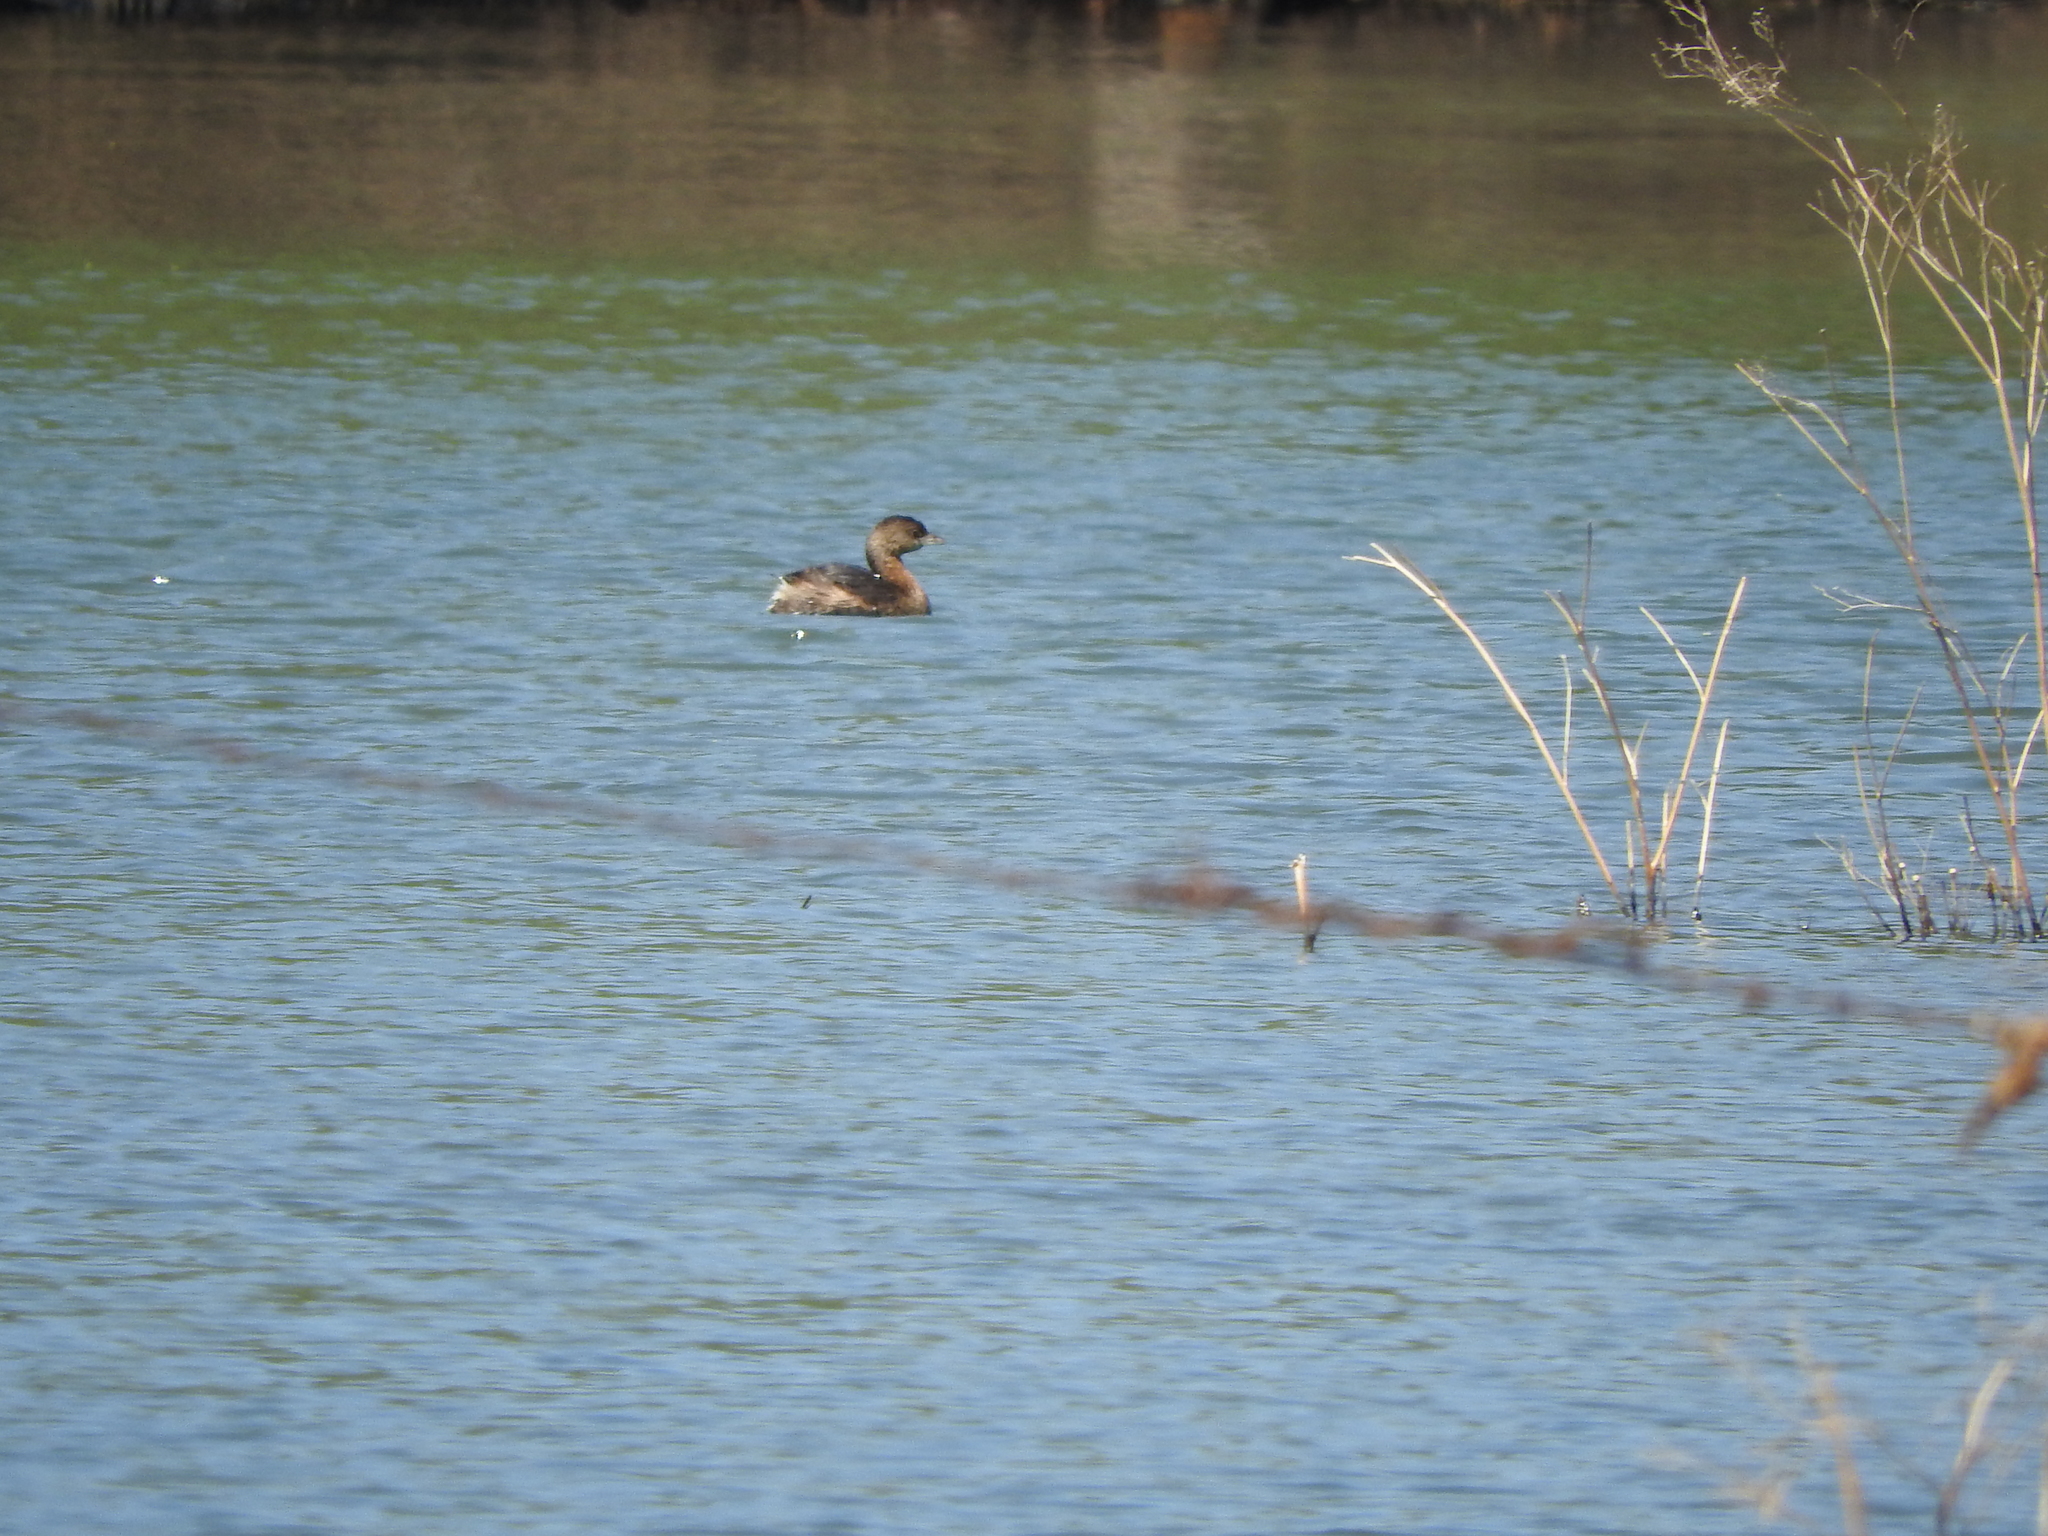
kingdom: Animalia
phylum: Chordata
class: Aves
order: Podicipediformes
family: Podicipedidae
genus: Podilymbus
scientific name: Podilymbus podiceps
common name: Pied-billed grebe
